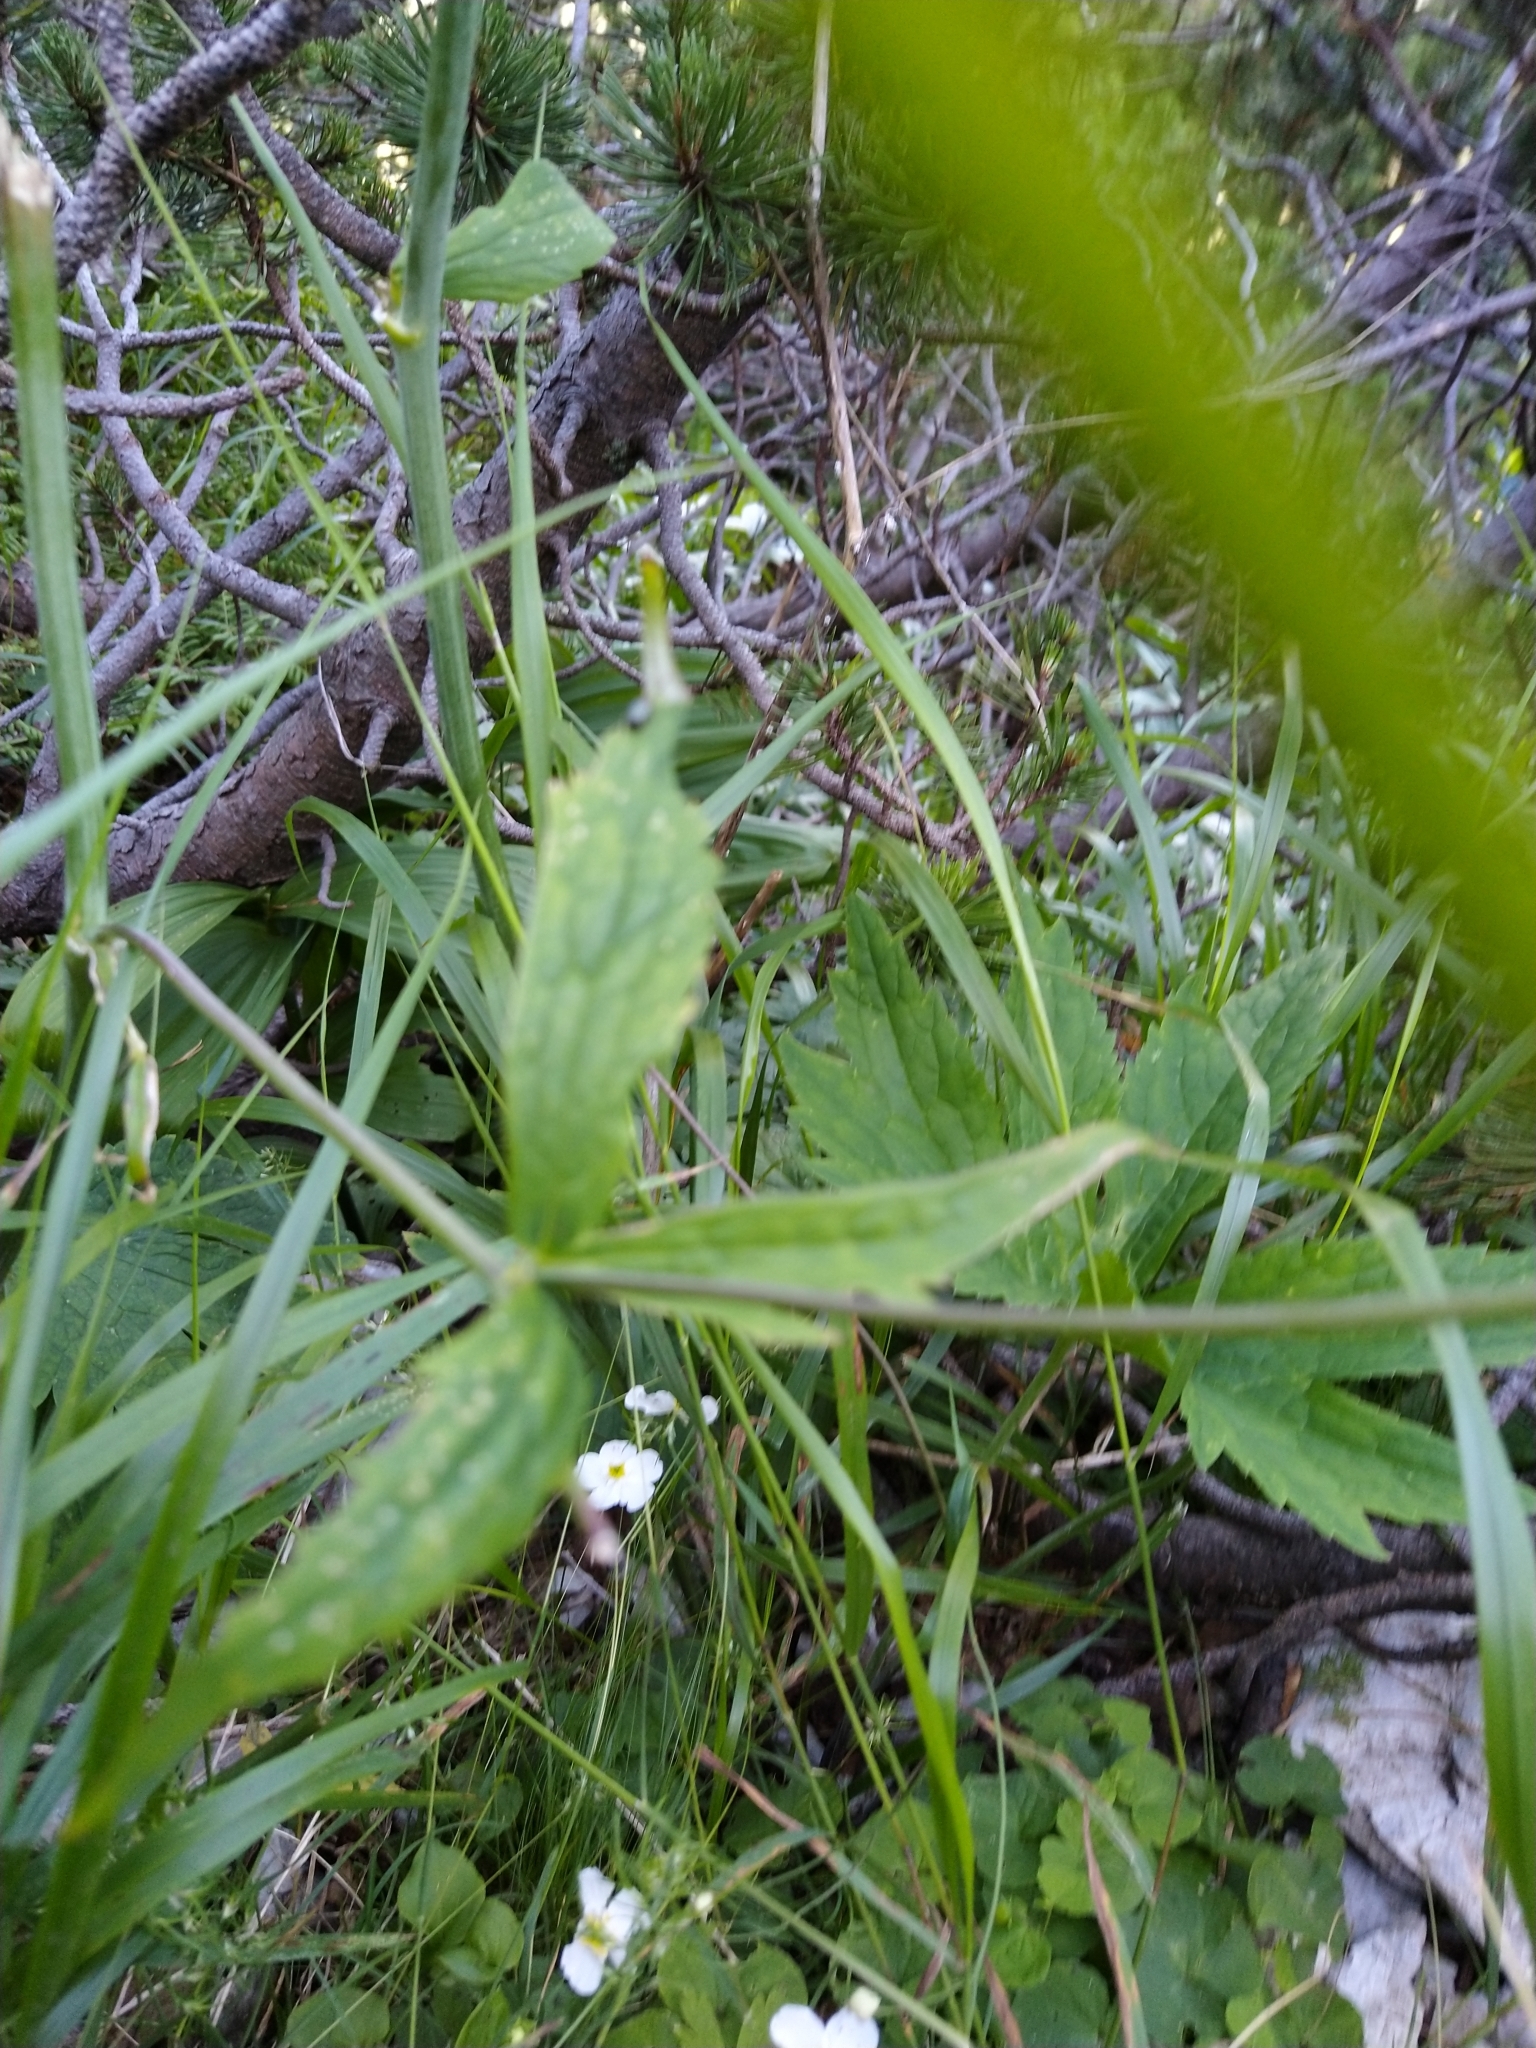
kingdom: Plantae
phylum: Tracheophyta
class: Magnoliopsida
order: Ranunculales
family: Ranunculaceae
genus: Ranunculus
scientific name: Ranunculus platanifolius
